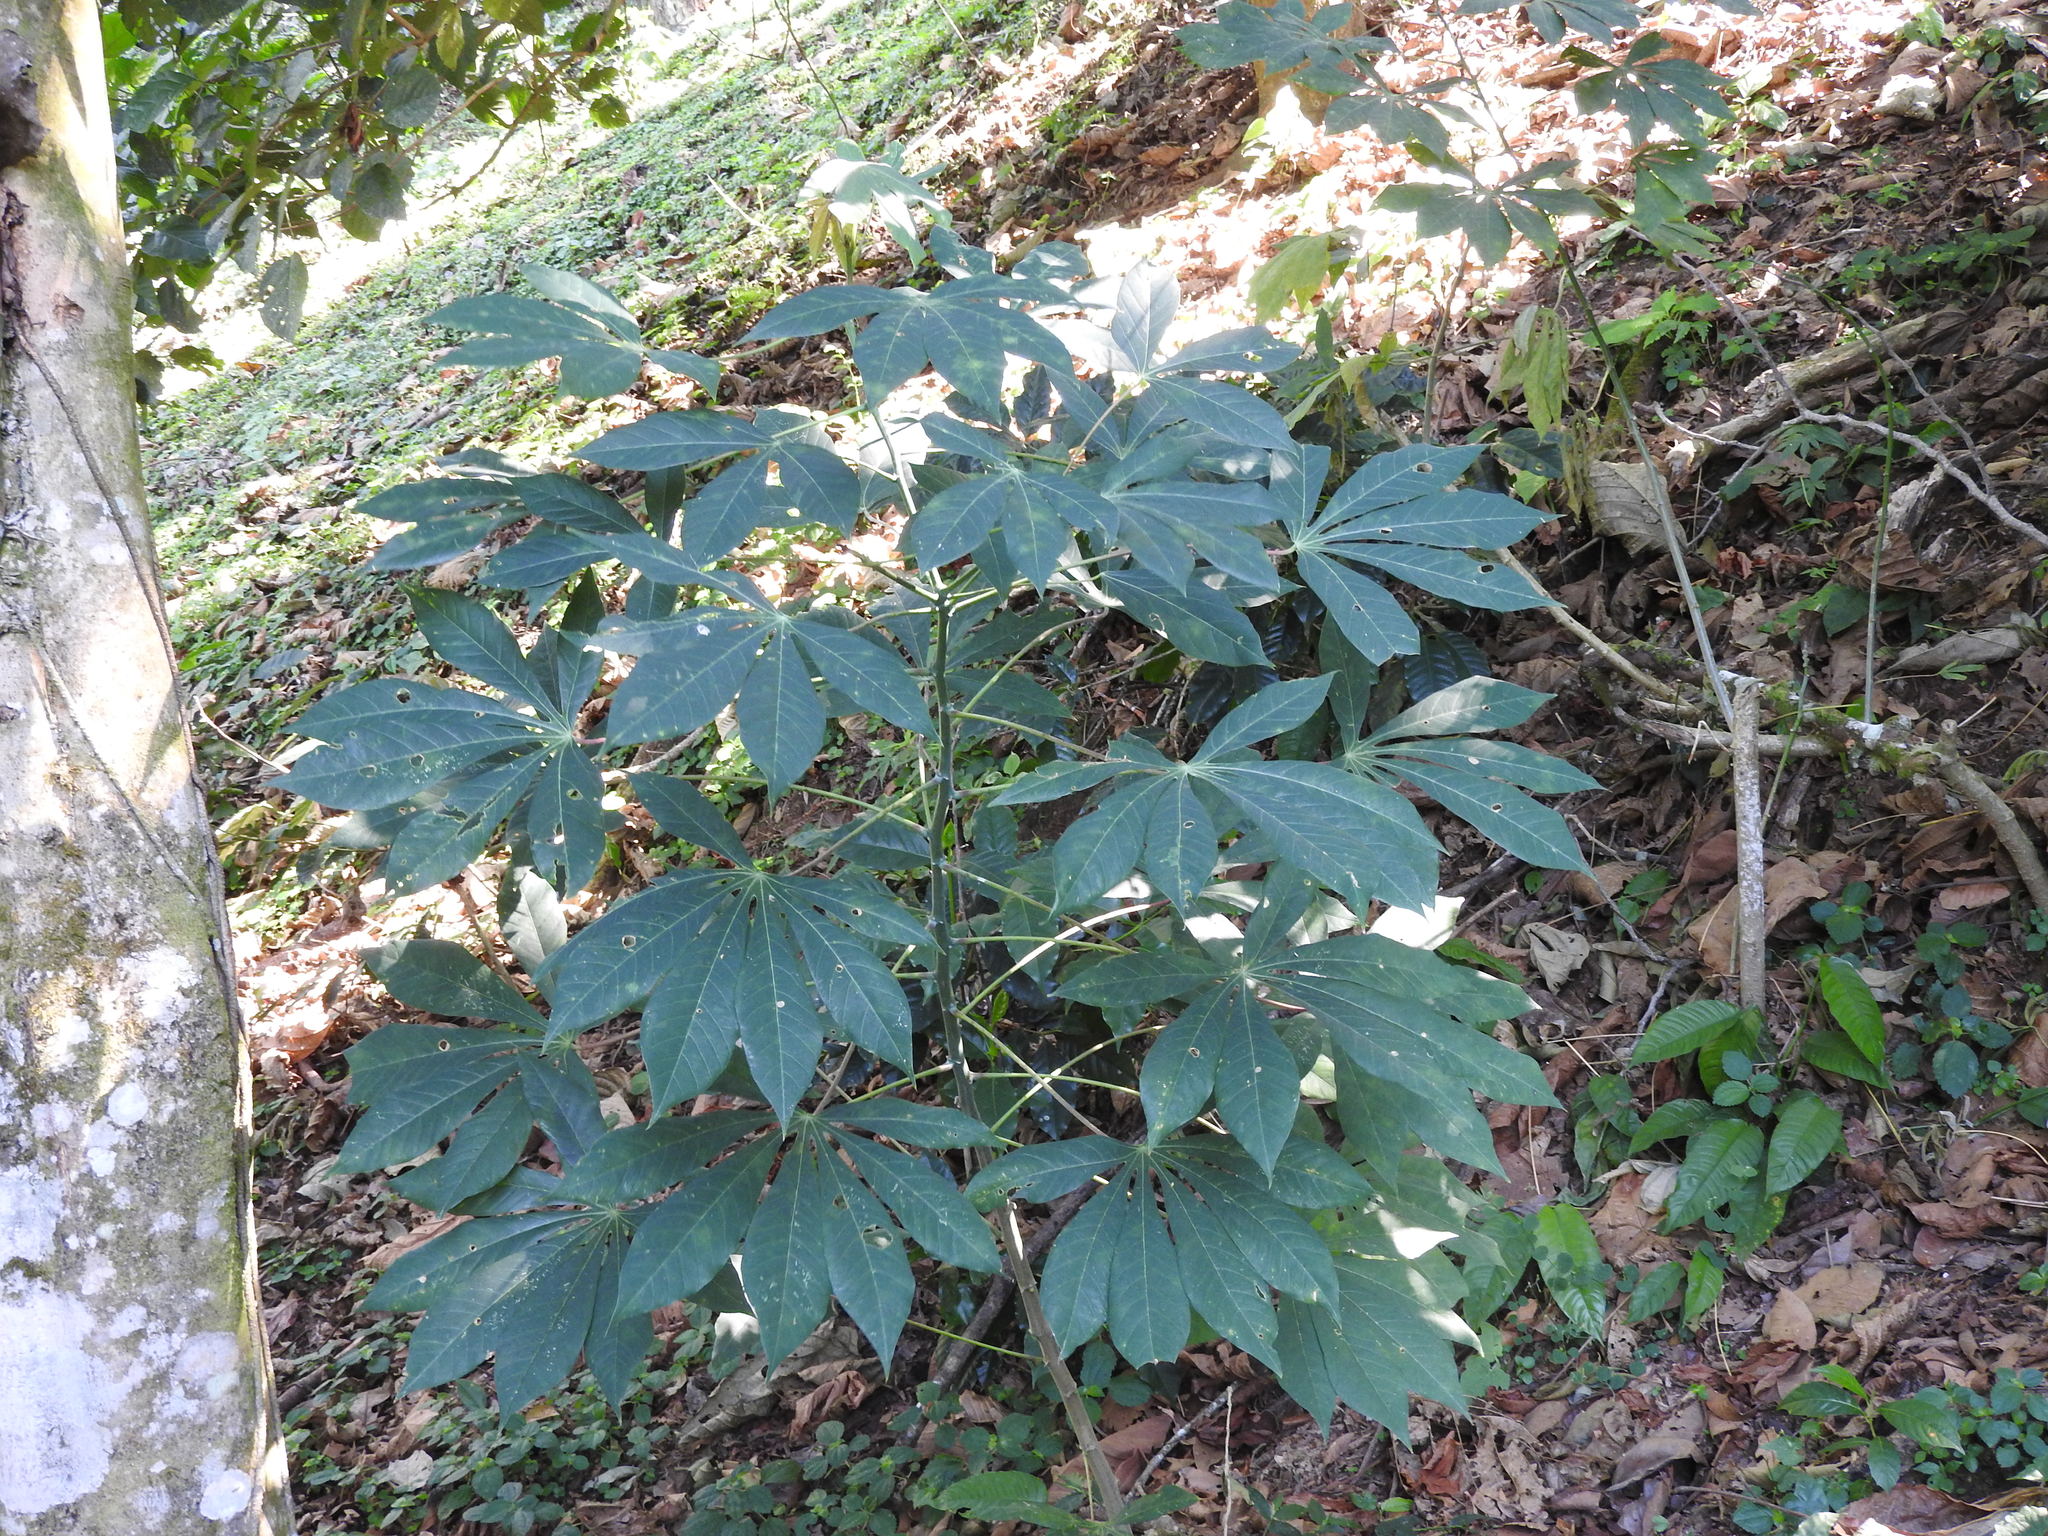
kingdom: Plantae
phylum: Tracheophyta
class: Magnoliopsida
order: Malpighiales
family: Euphorbiaceae
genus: Manihot
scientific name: Manihot esculenta
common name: Cassava
